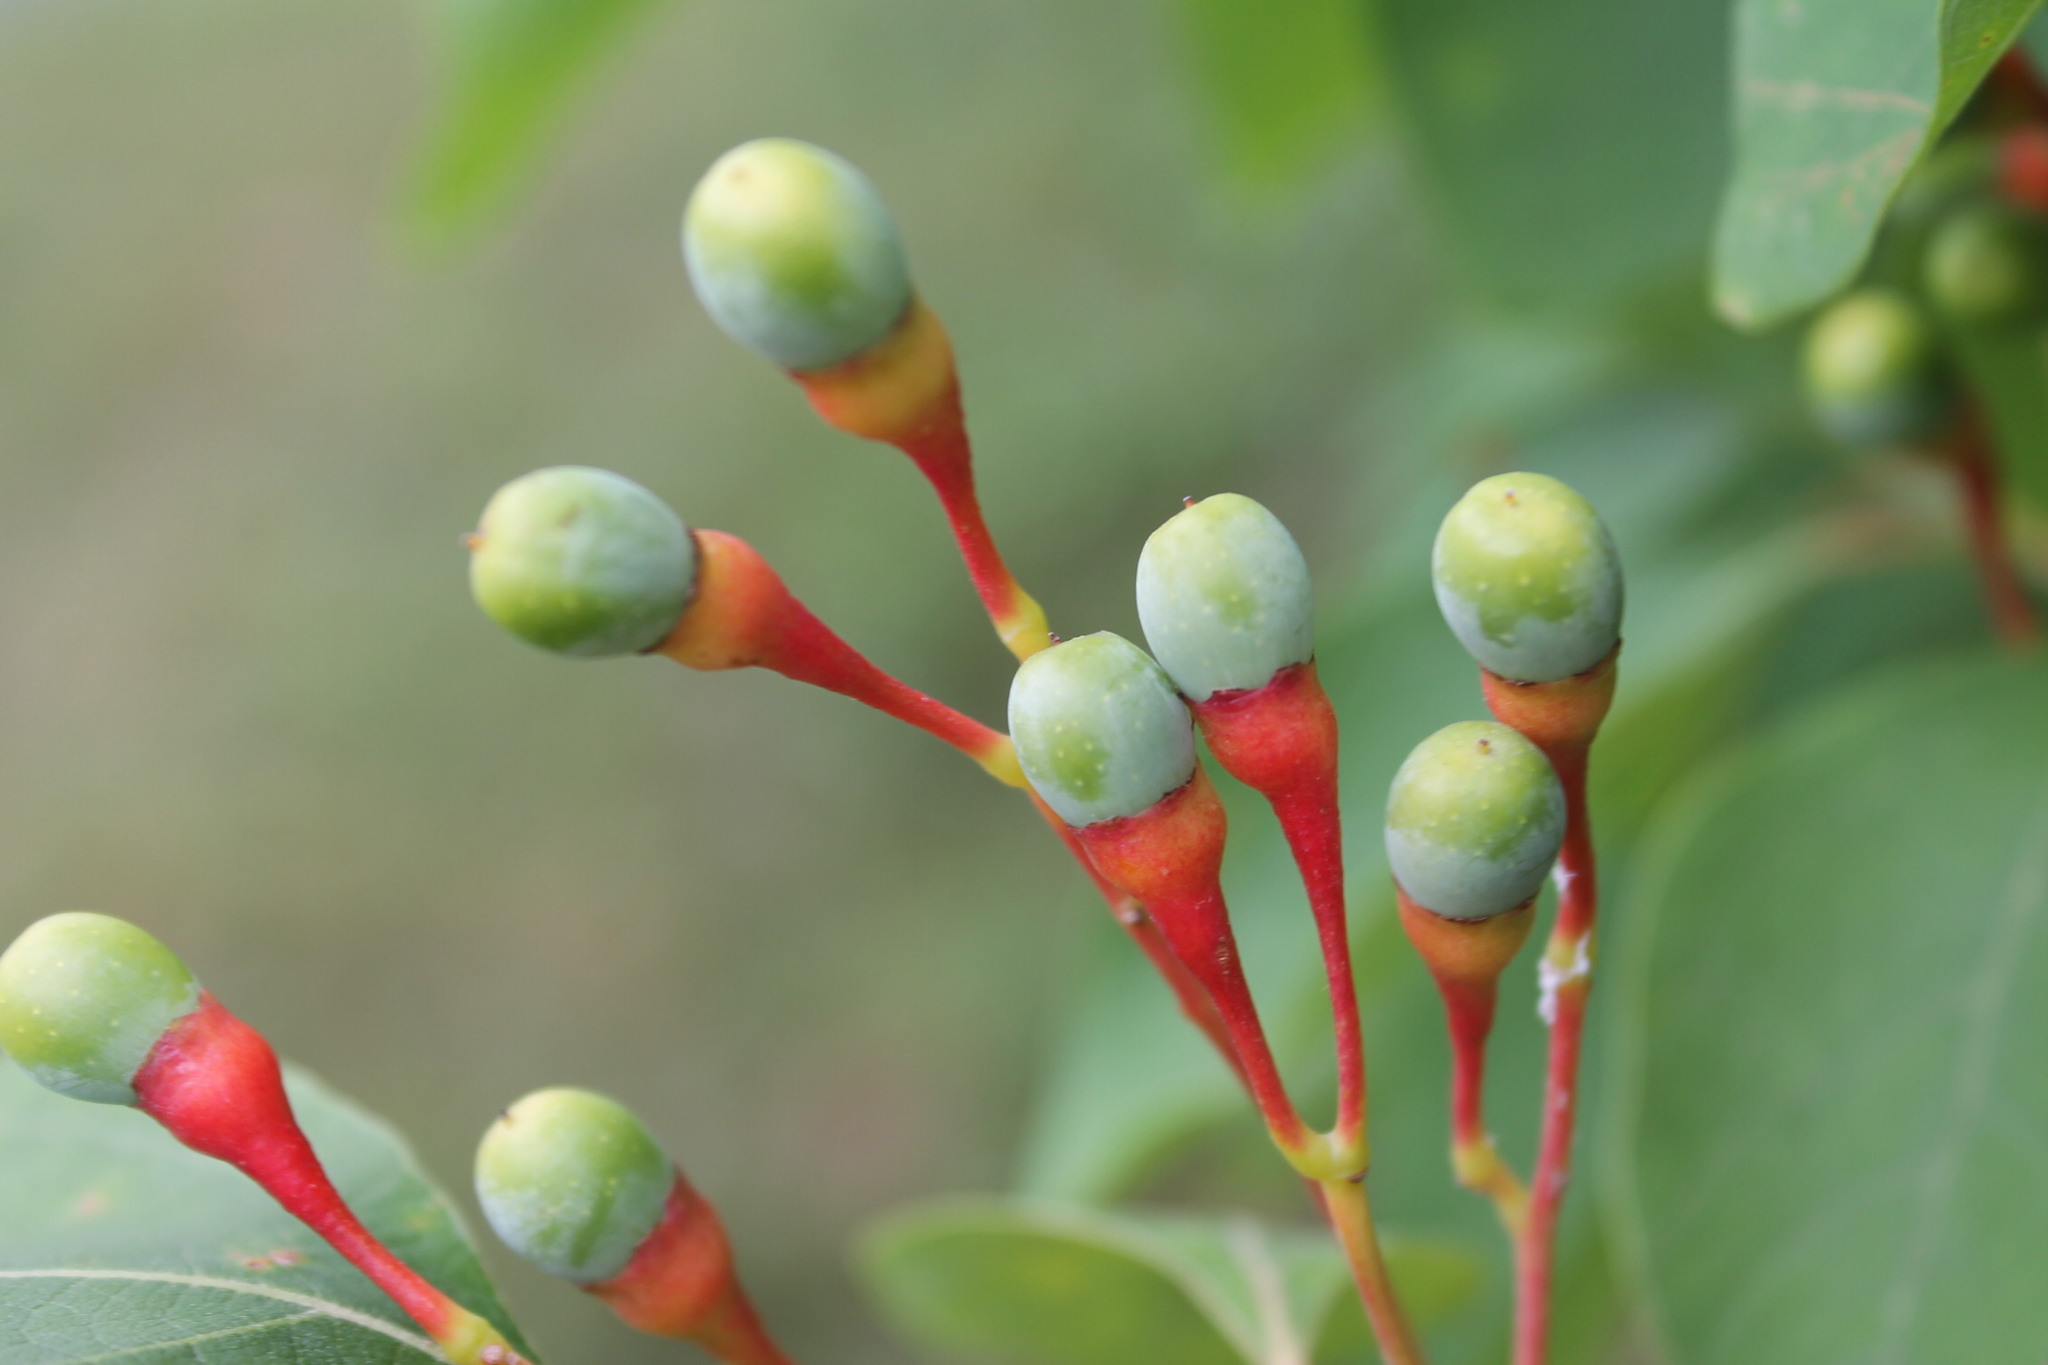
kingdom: Plantae
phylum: Tracheophyta
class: Magnoliopsida
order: Laurales
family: Lauraceae
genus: Sassafras
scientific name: Sassafras albidum
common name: Sassafras
